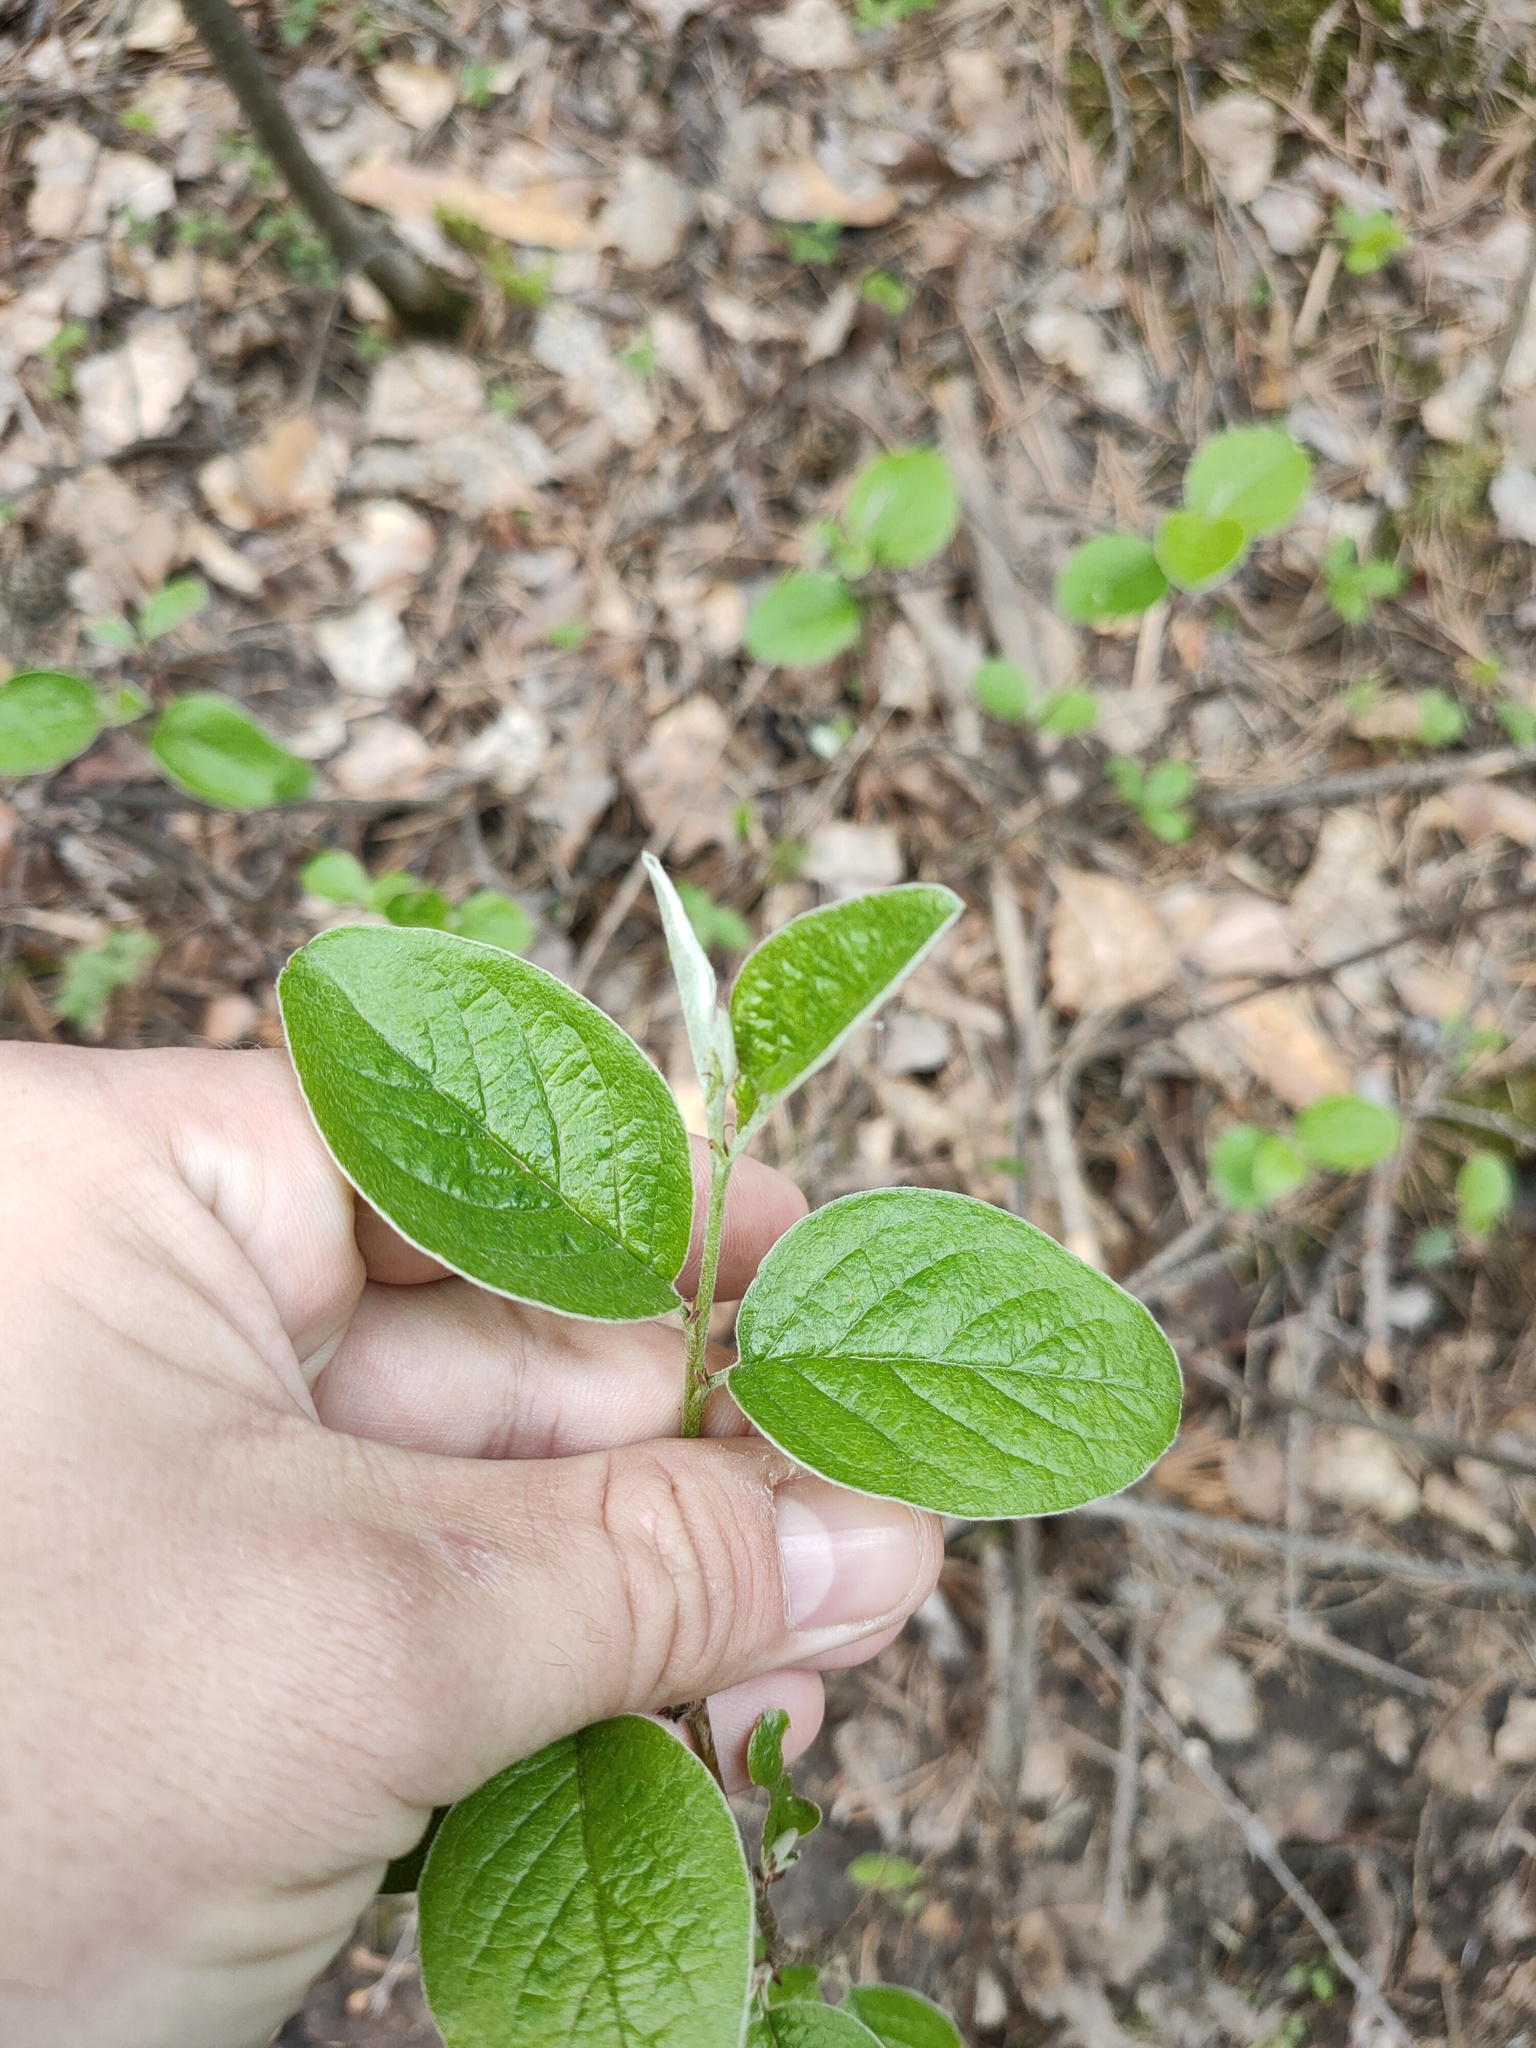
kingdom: Plantae
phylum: Tracheophyta
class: Magnoliopsida
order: Rosales
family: Rosaceae
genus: Cotoneaster
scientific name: Cotoneaster melanocarpus
